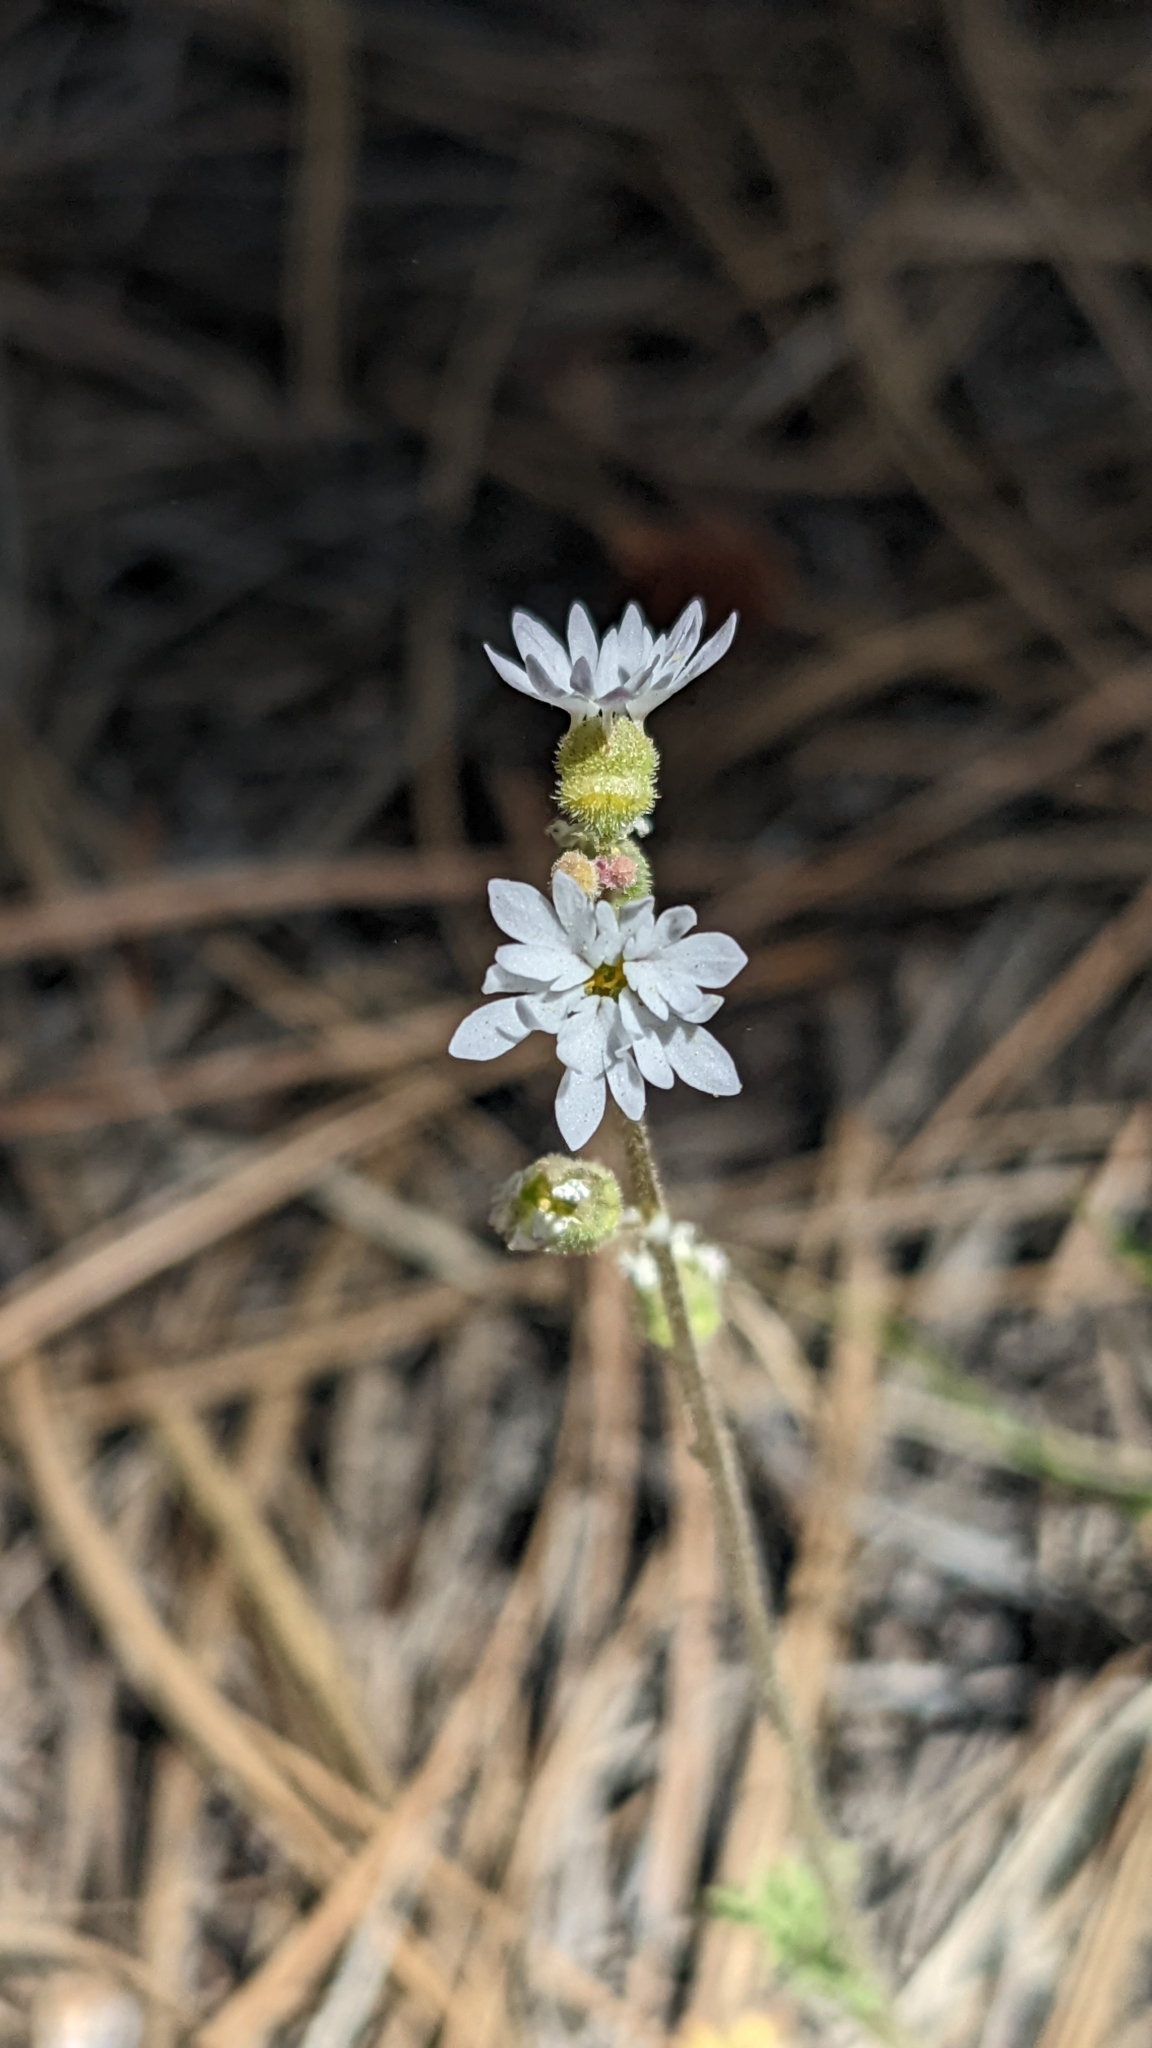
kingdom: Plantae
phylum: Tracheophyta
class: Magnoliopsida
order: Saxifragales
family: Saxifragaceae
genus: Lithophragma
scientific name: Lithophragma tenella
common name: Slender fringe-cup
